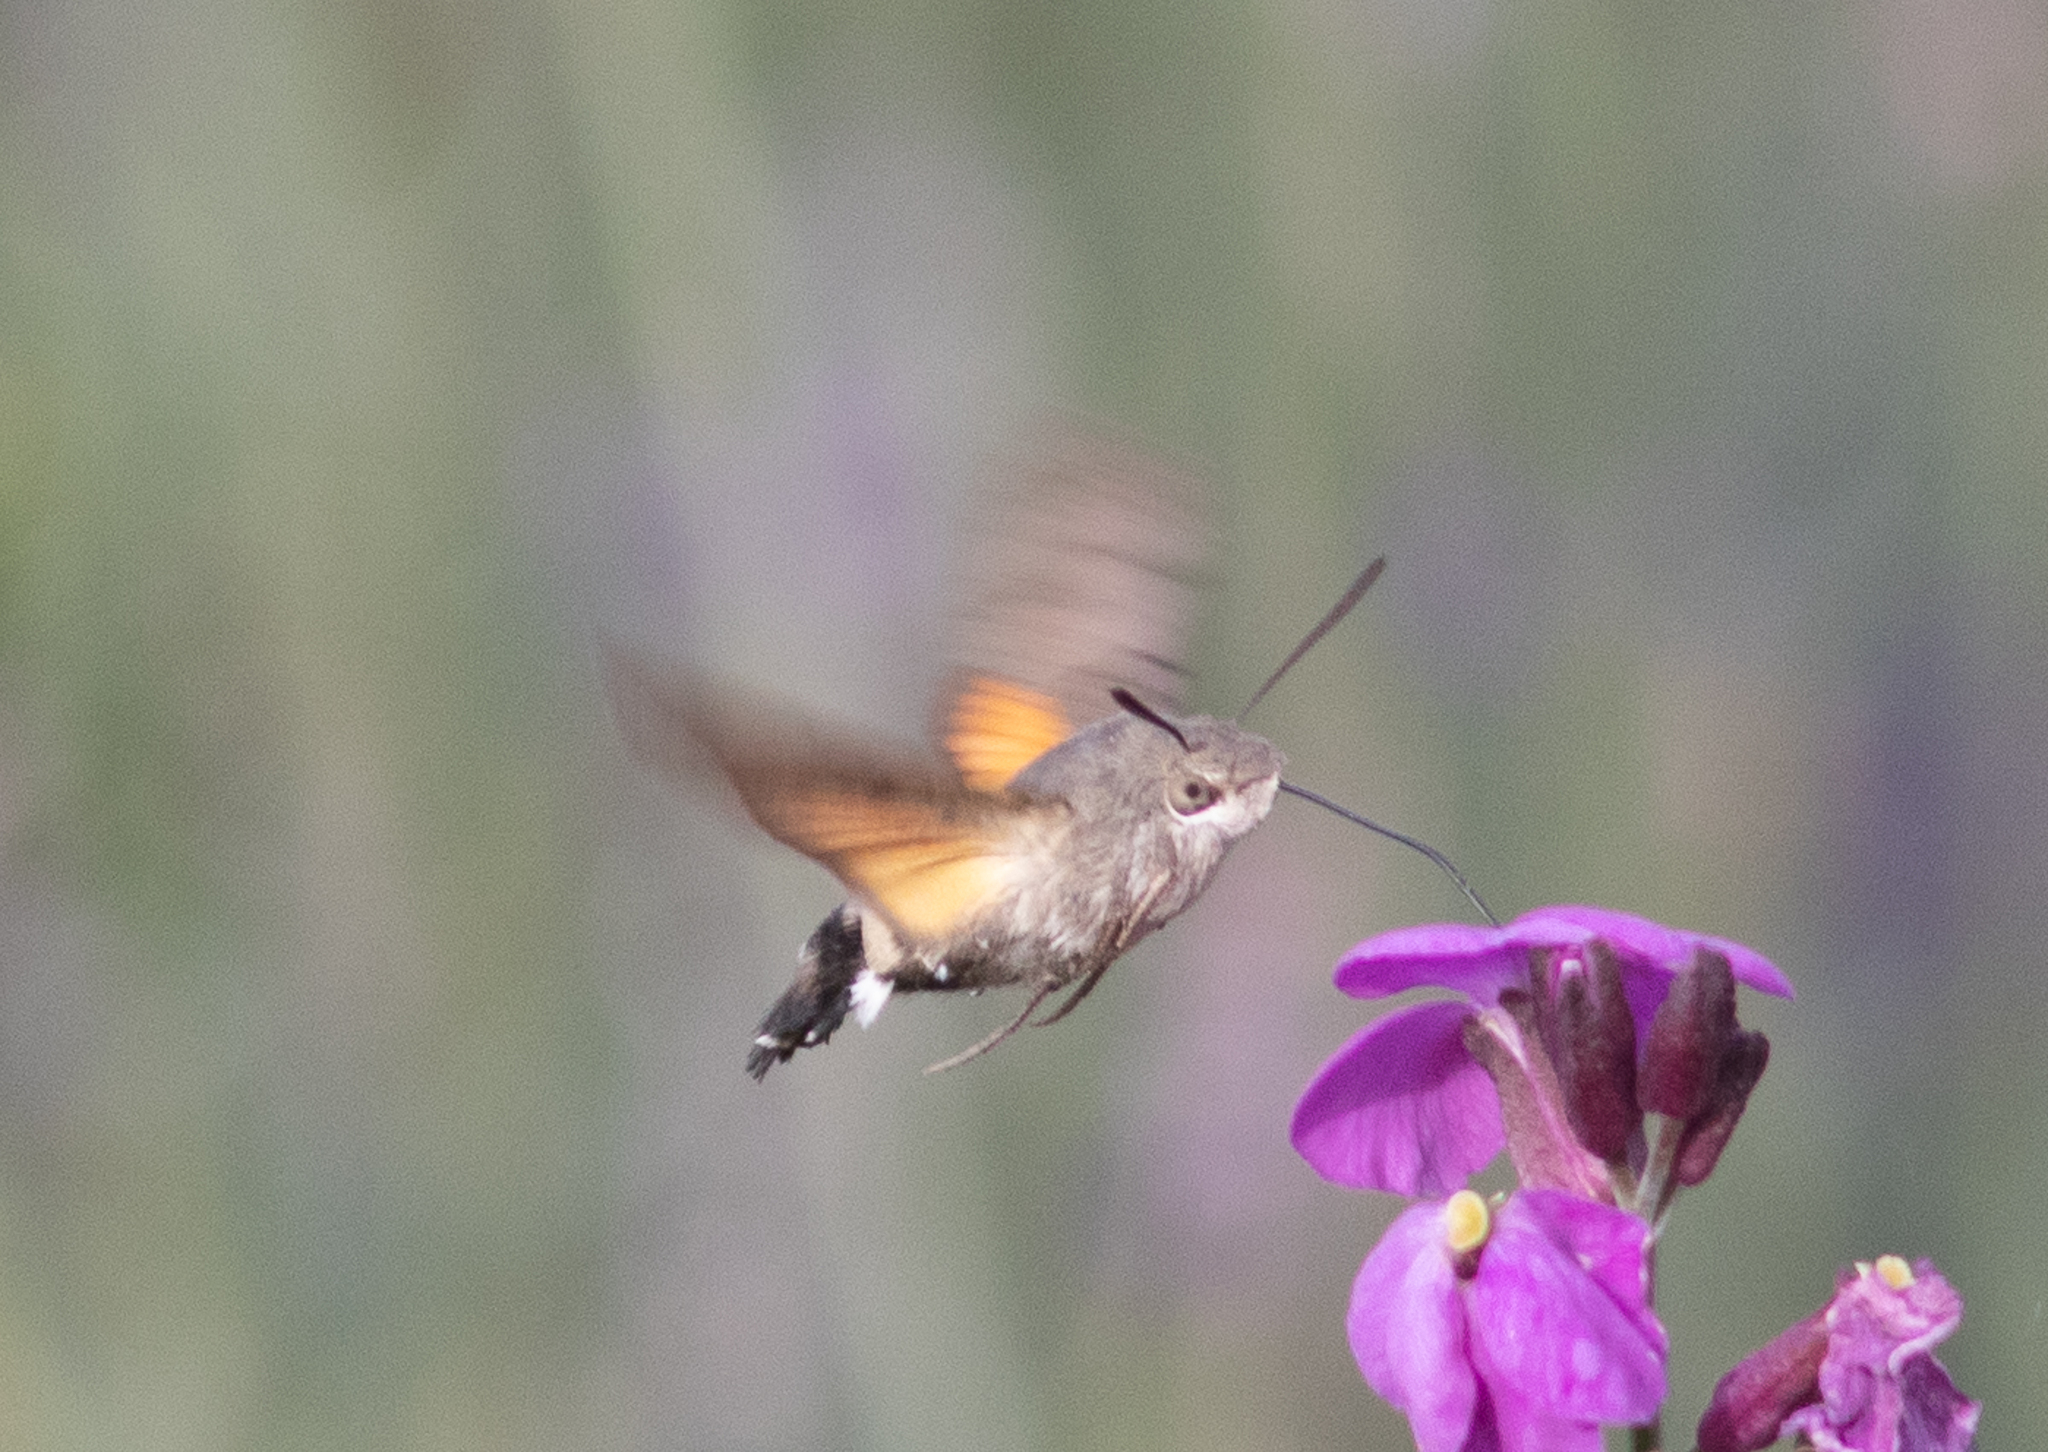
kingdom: Animalia
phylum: Arthropoda
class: Insecta
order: Lepidoptera
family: Sphingidae
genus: Macroglossum
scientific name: Macroglossum stellatarum
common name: Humming-bird hawk-moth
